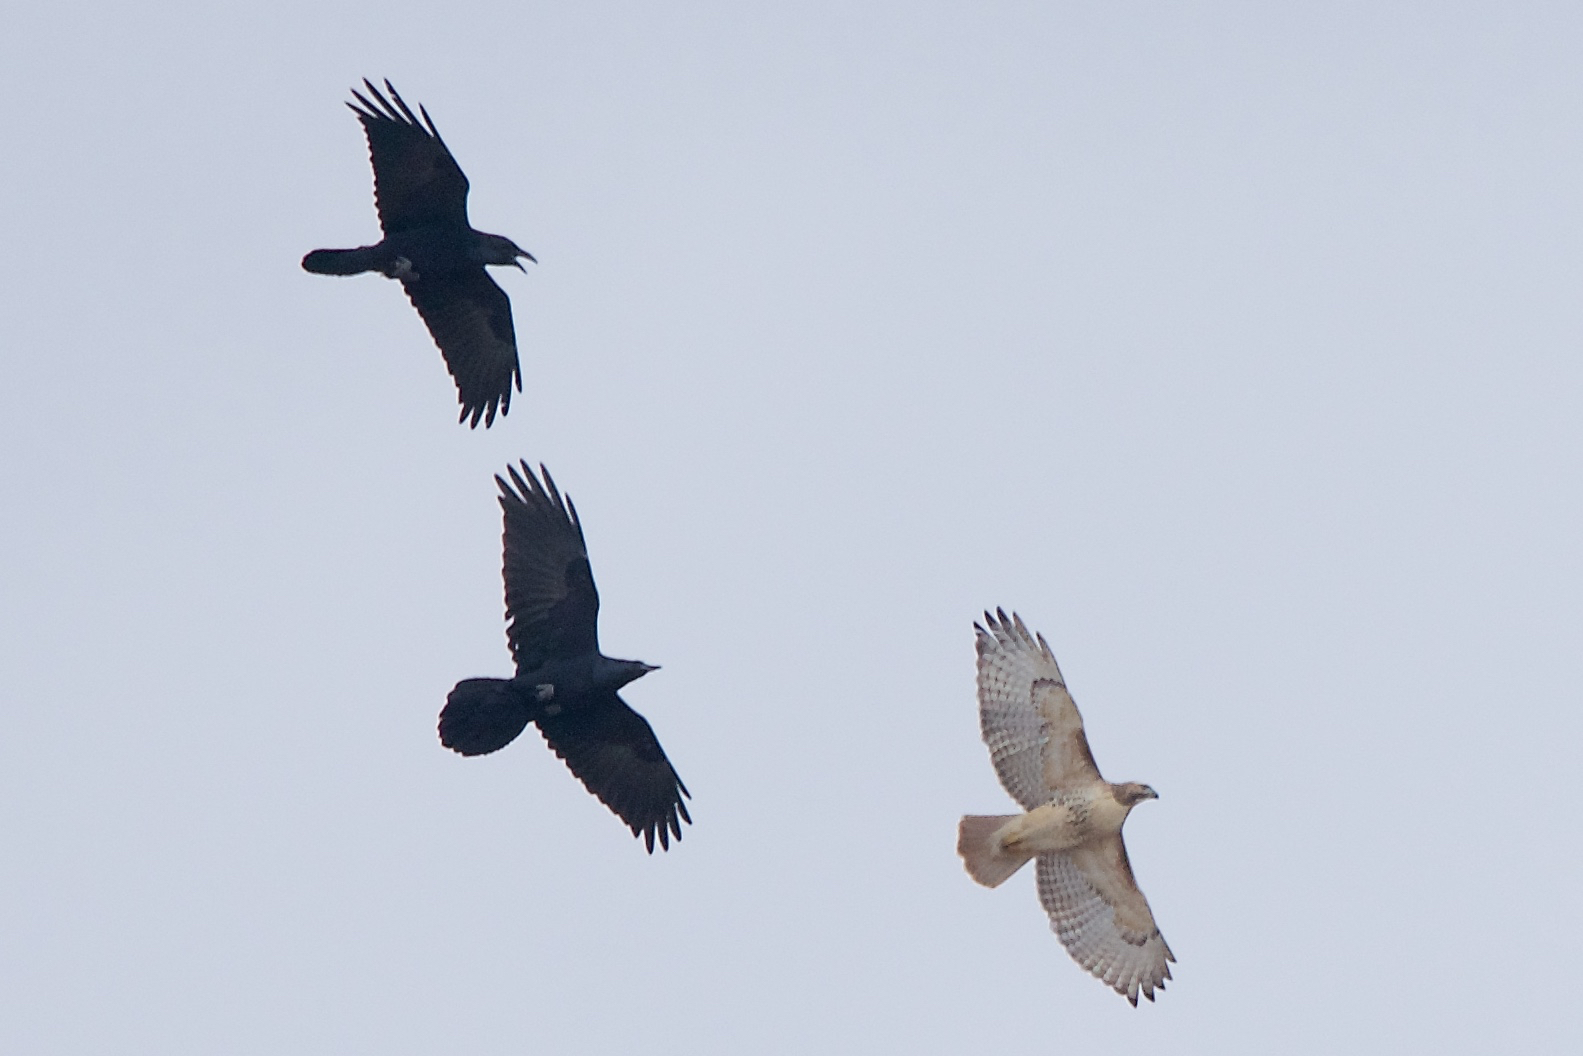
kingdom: Animalia
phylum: Chordata
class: Aves
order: Passeriformes
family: Corvidae
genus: Corvus
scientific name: Corvus corax
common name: Common raven
